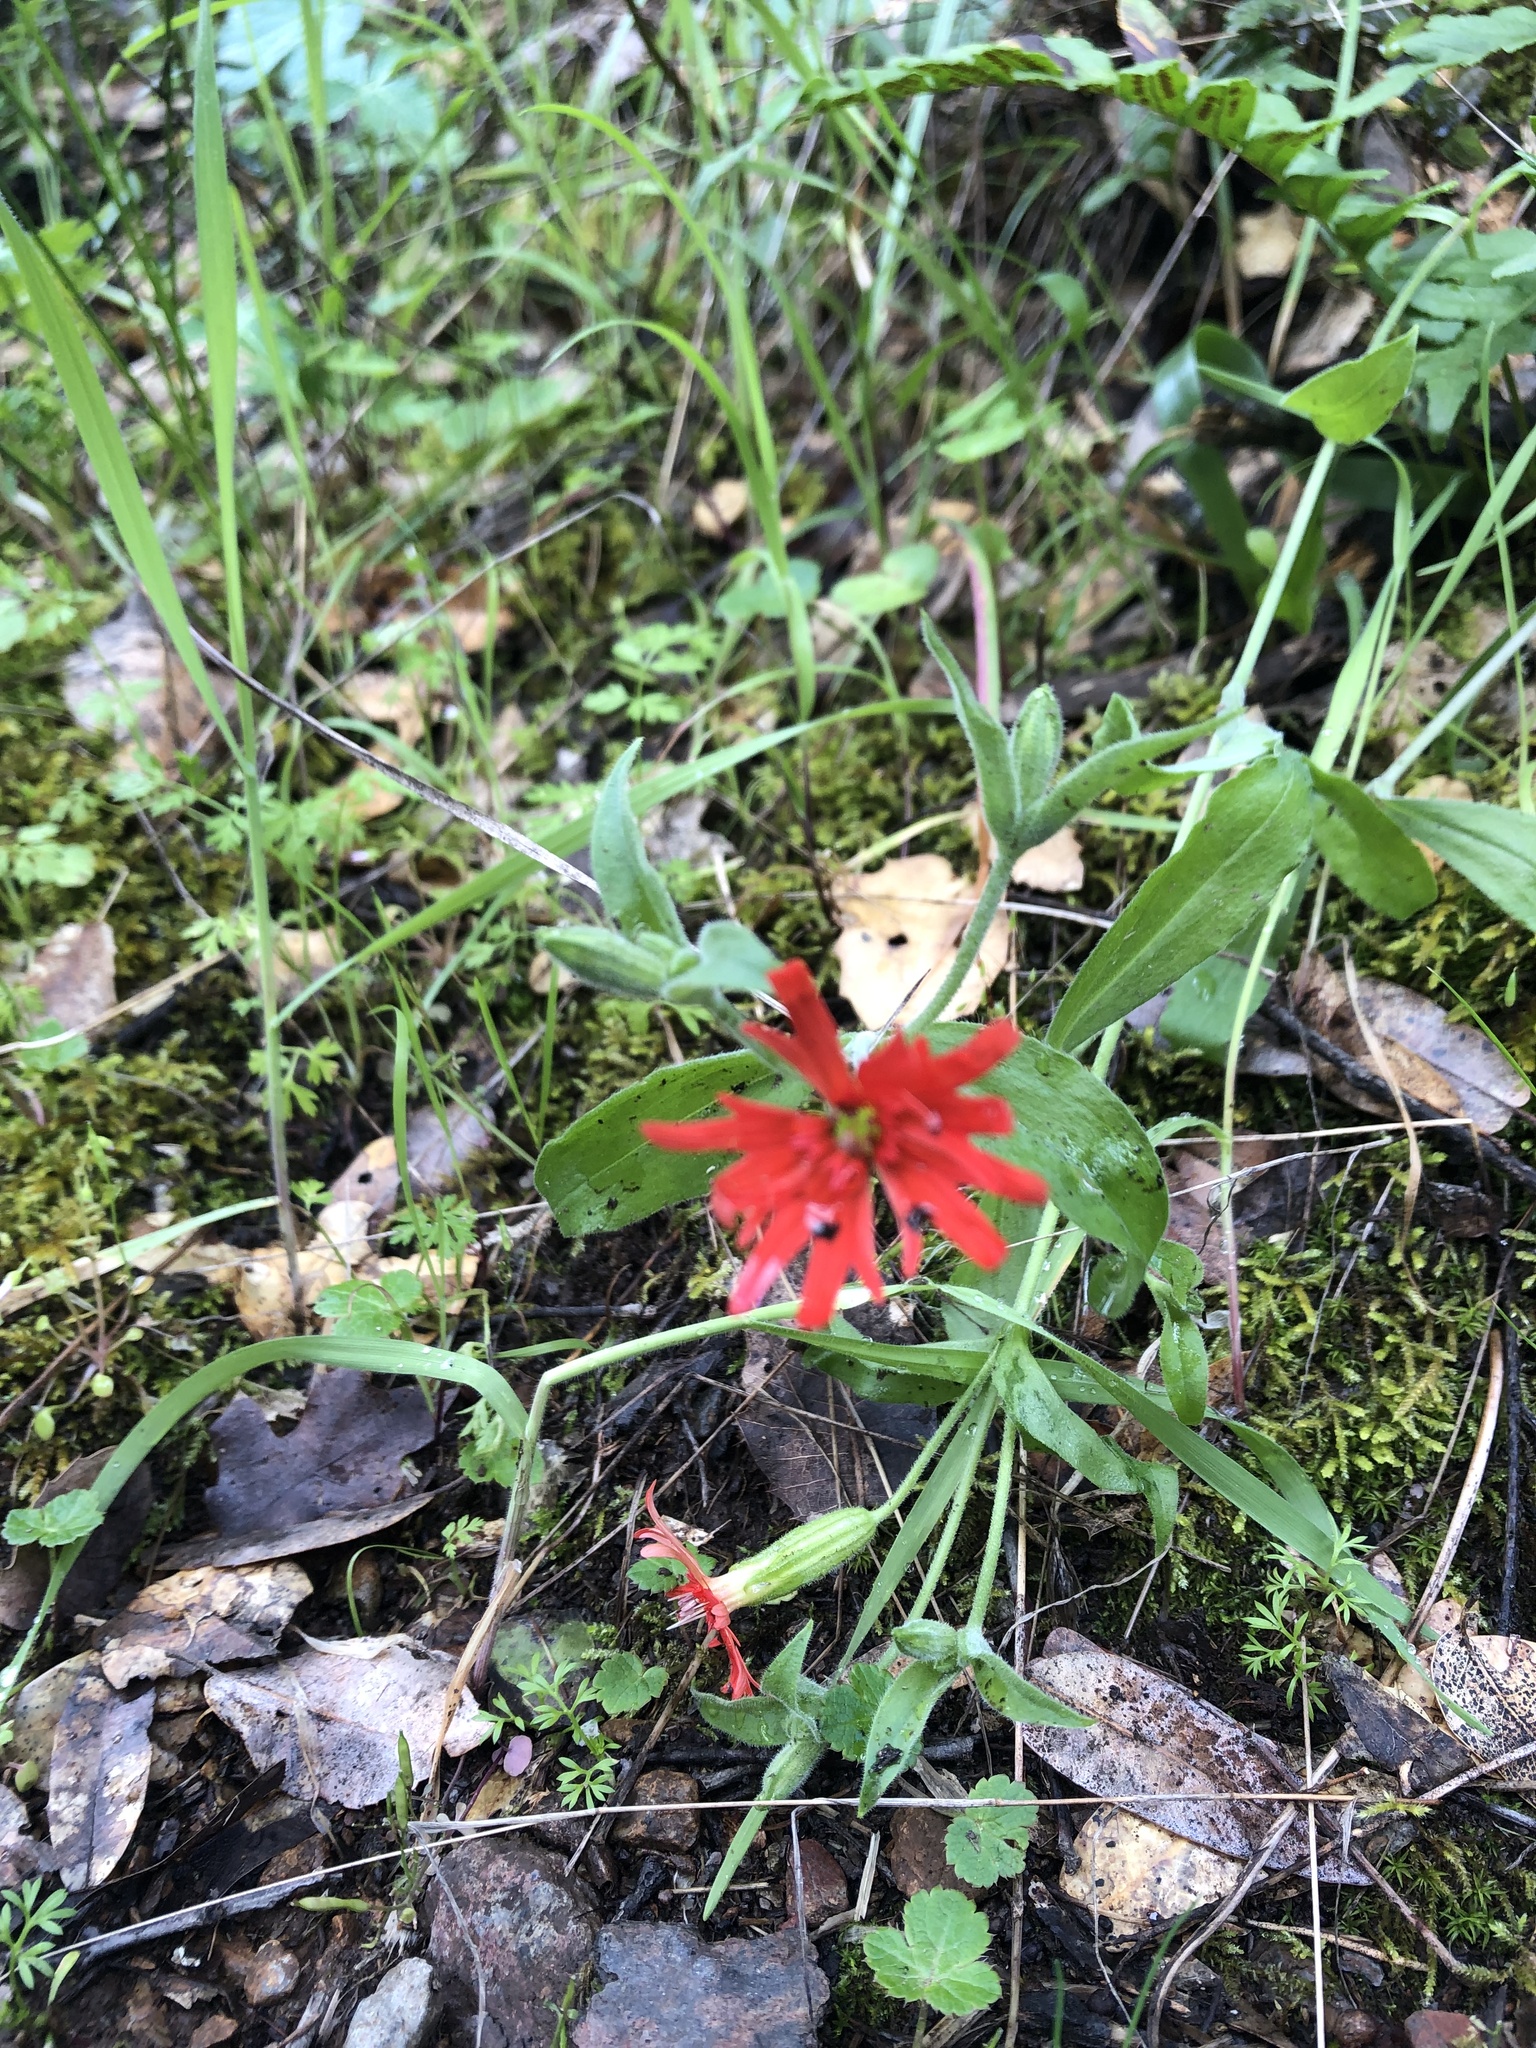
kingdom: Plantae
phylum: Tracheophyta
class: Magnoliopsida
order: Caryophyllales
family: Caryophyllaceae
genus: Silene
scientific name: Silene laciniata
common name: Indian-pink
